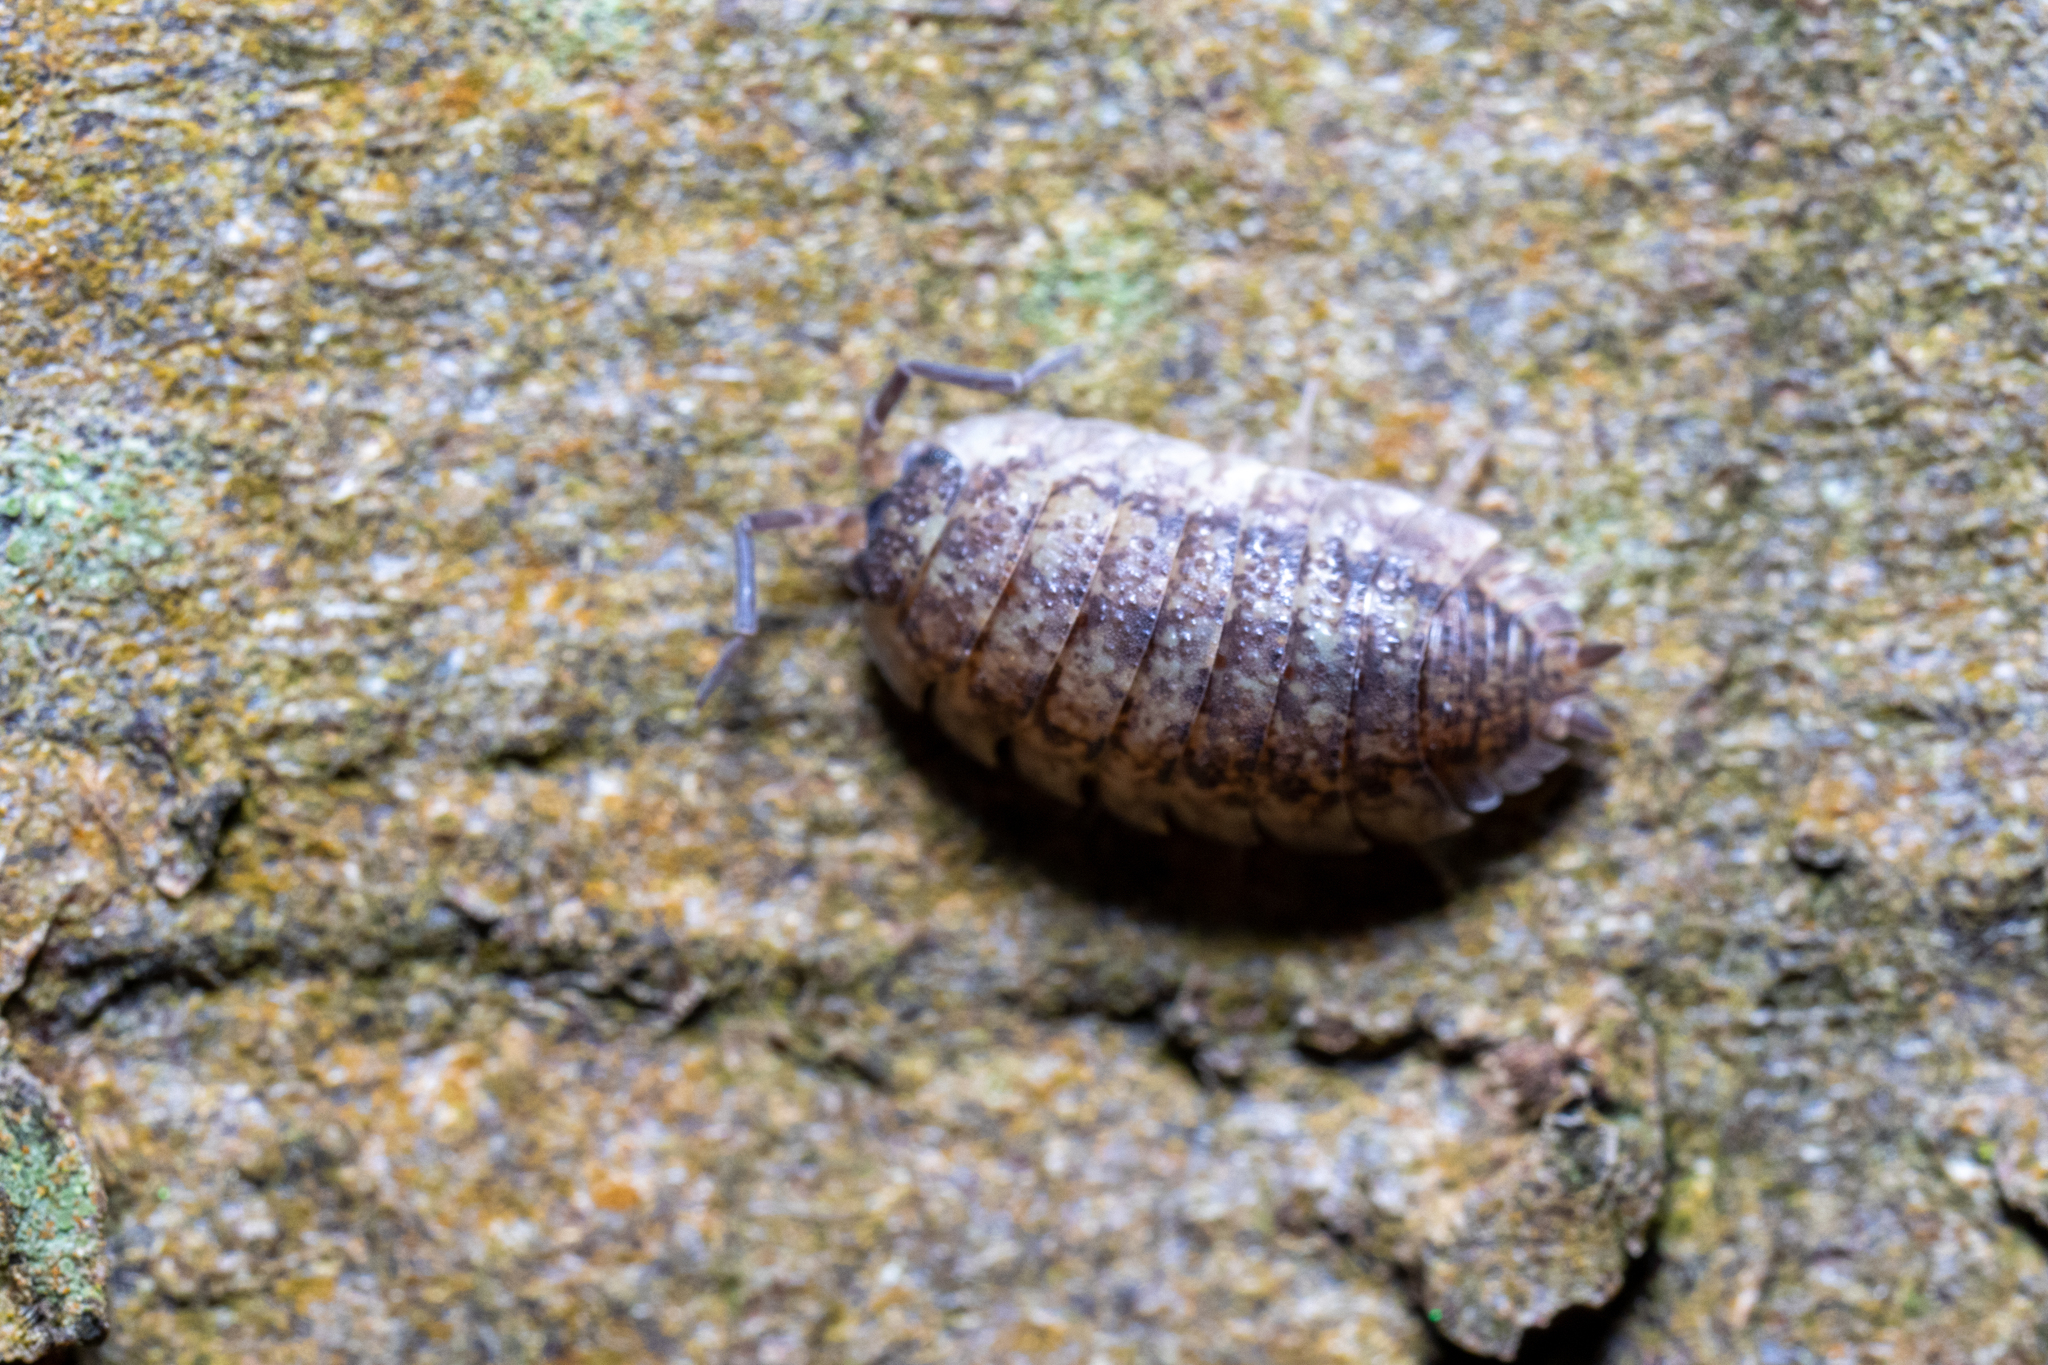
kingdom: Animalia
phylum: Arthropoda
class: Malacostraca
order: Isopoda
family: Porcellionidae
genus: Porcellio
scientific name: Porcellio scaber
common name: Common rough woodlouse
